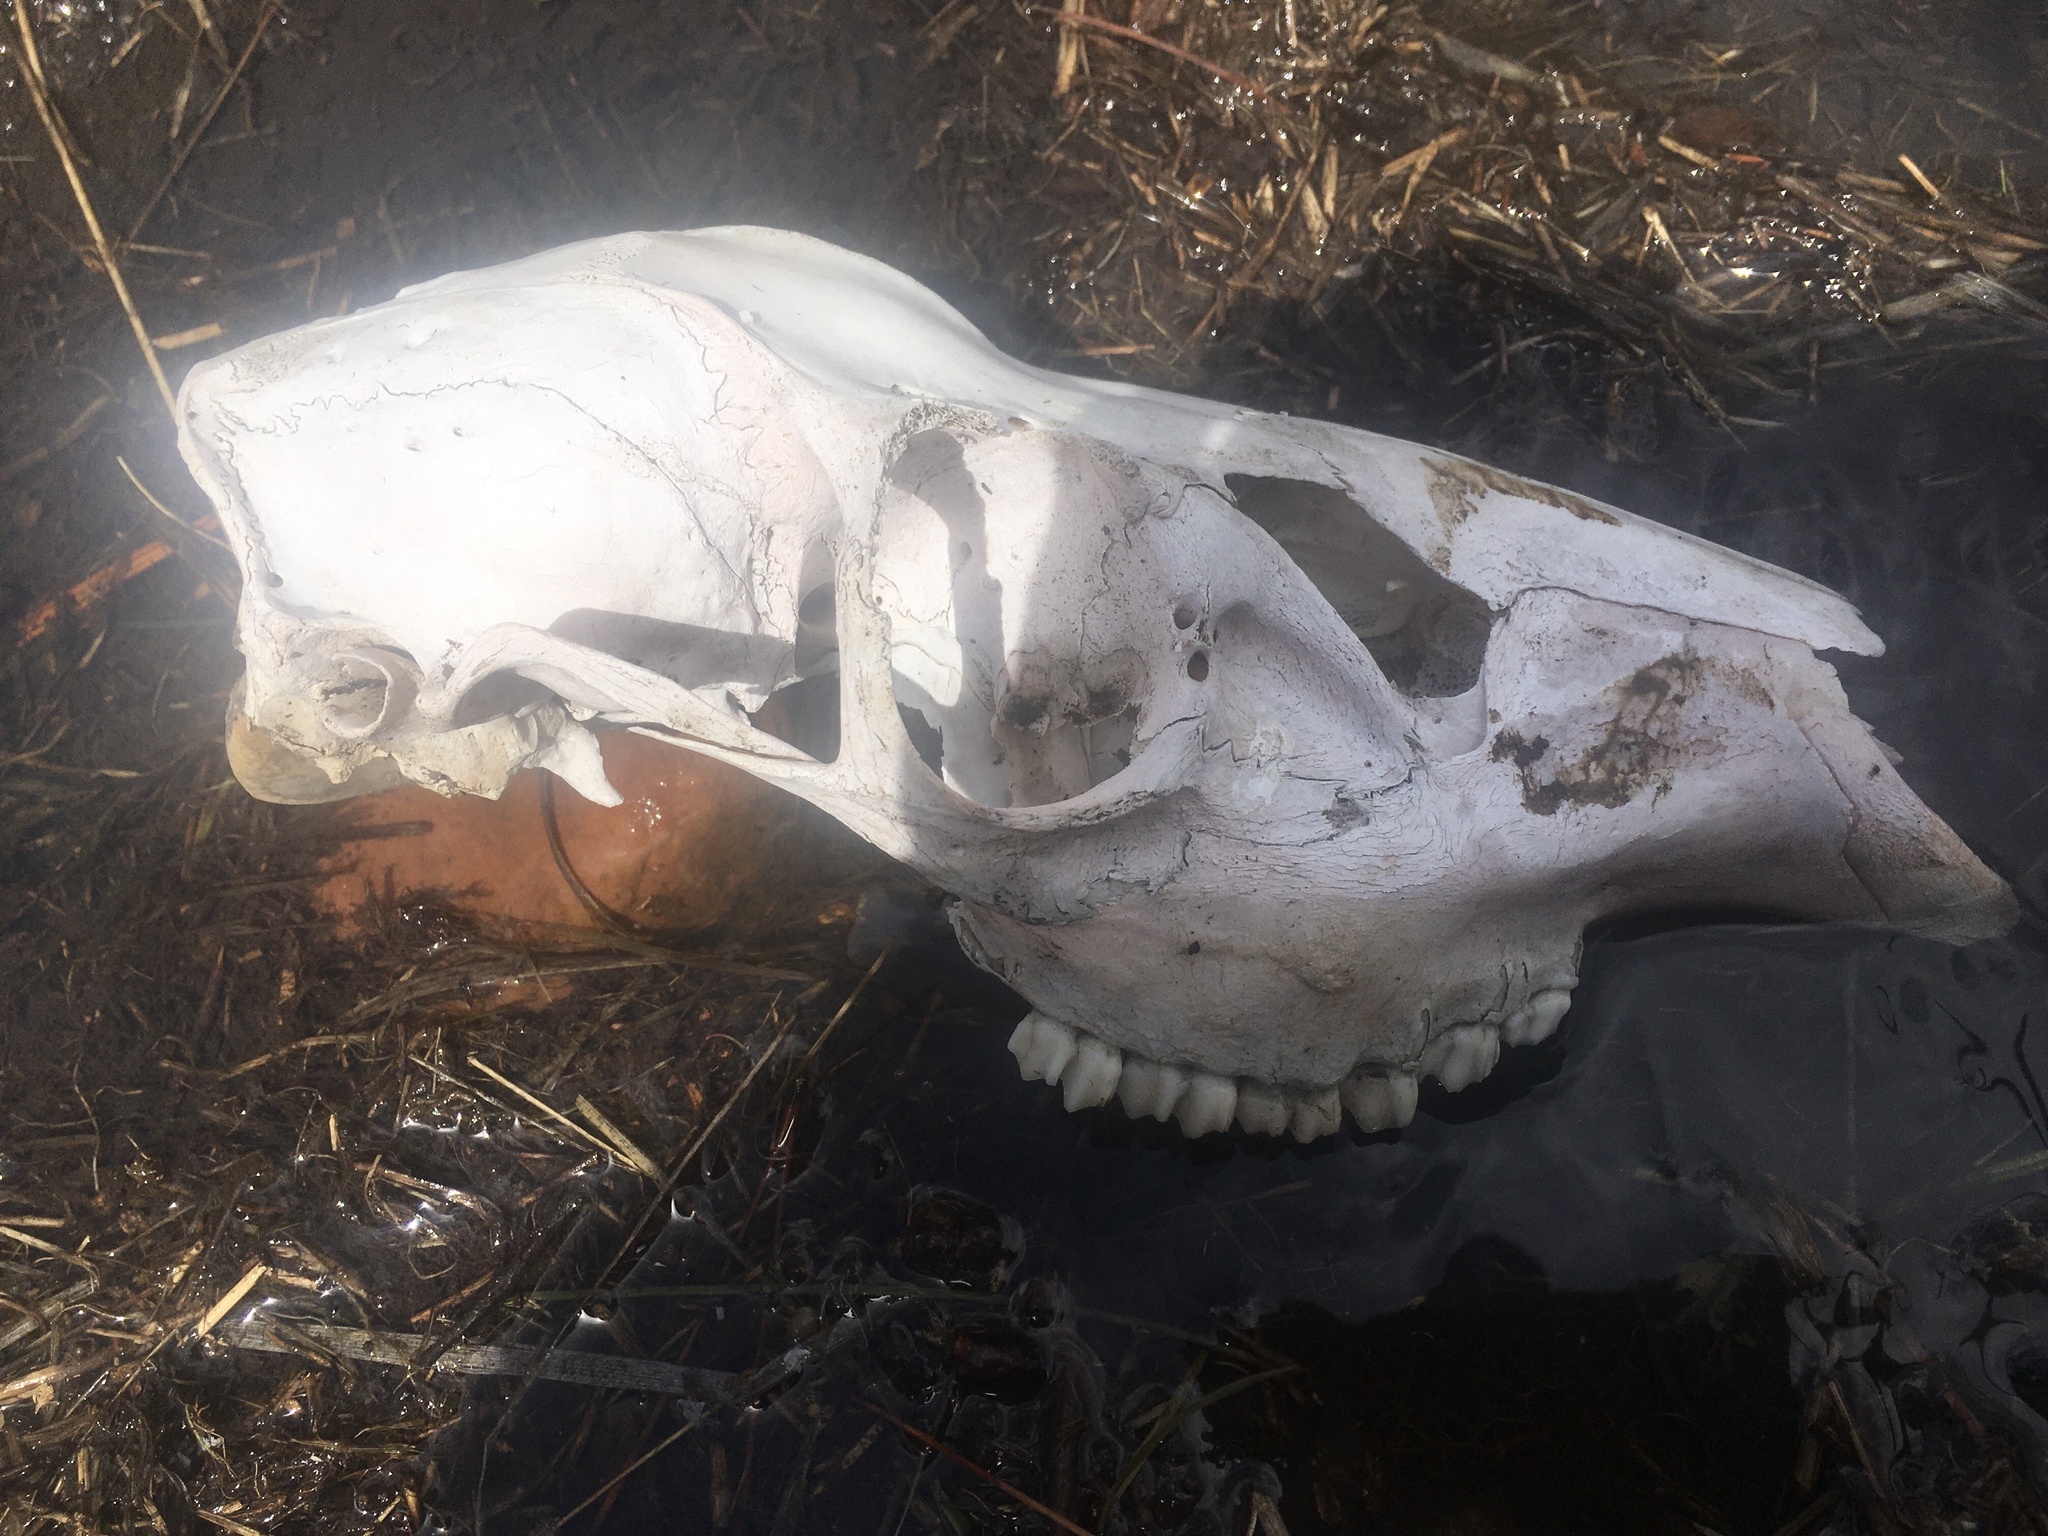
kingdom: Animalia
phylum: Chordata
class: Mammalia
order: Artiodactyla
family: Cervidae
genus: Odocoileus
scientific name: Odocoileus hemionus
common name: Mule deer
